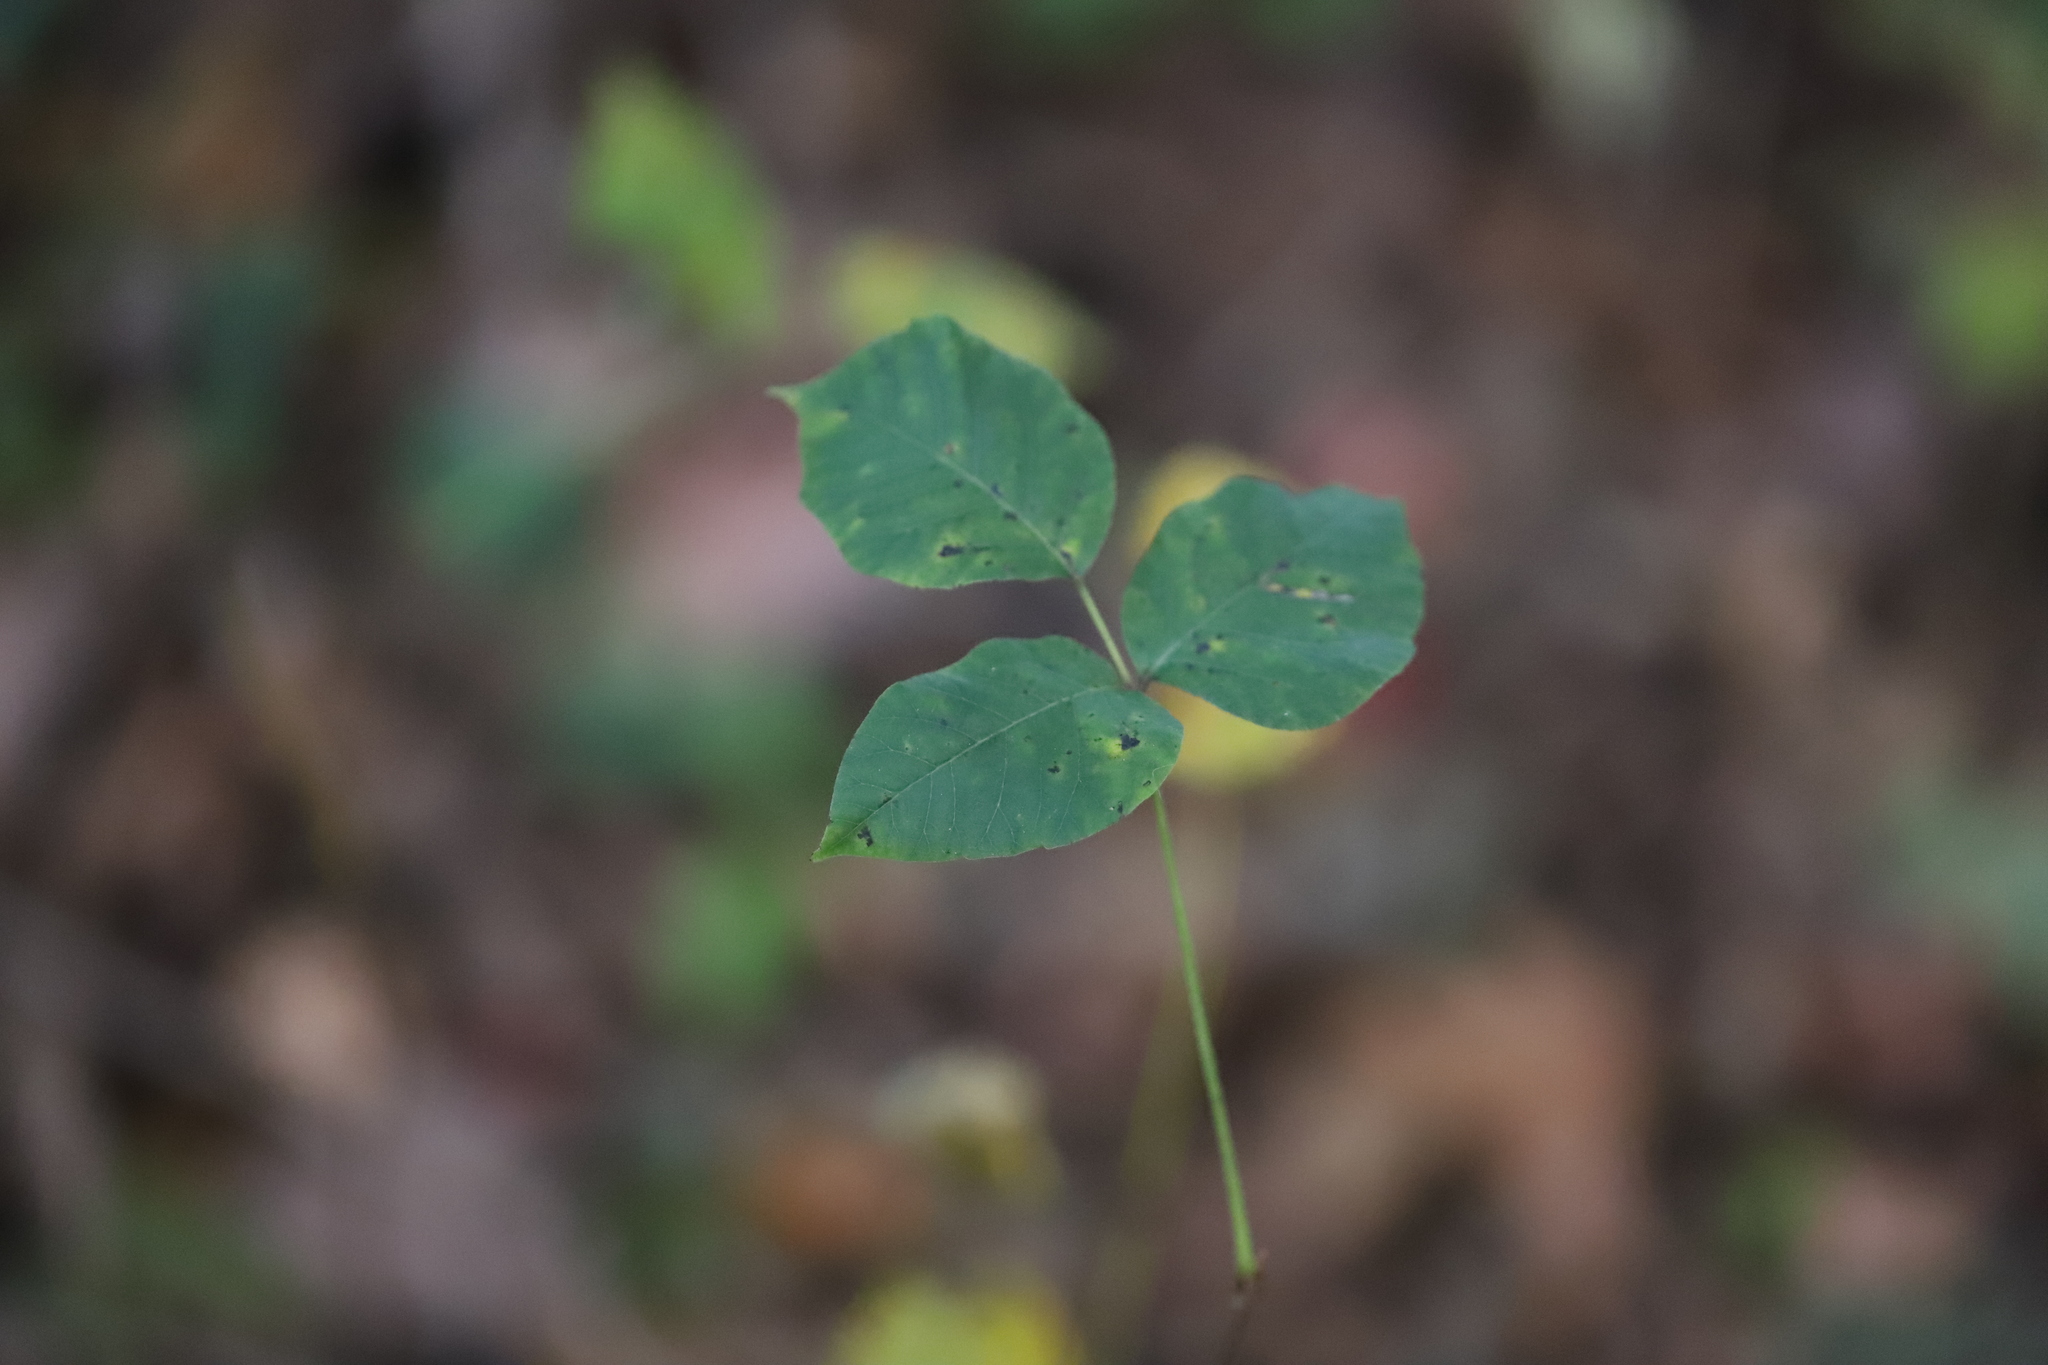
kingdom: Plantae
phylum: Tracheophyta
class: Magnoliopsida
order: Sapindales
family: Anacardiaceae
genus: Toxicodendron
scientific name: Toxicodendron radicans
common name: Poison ivy
